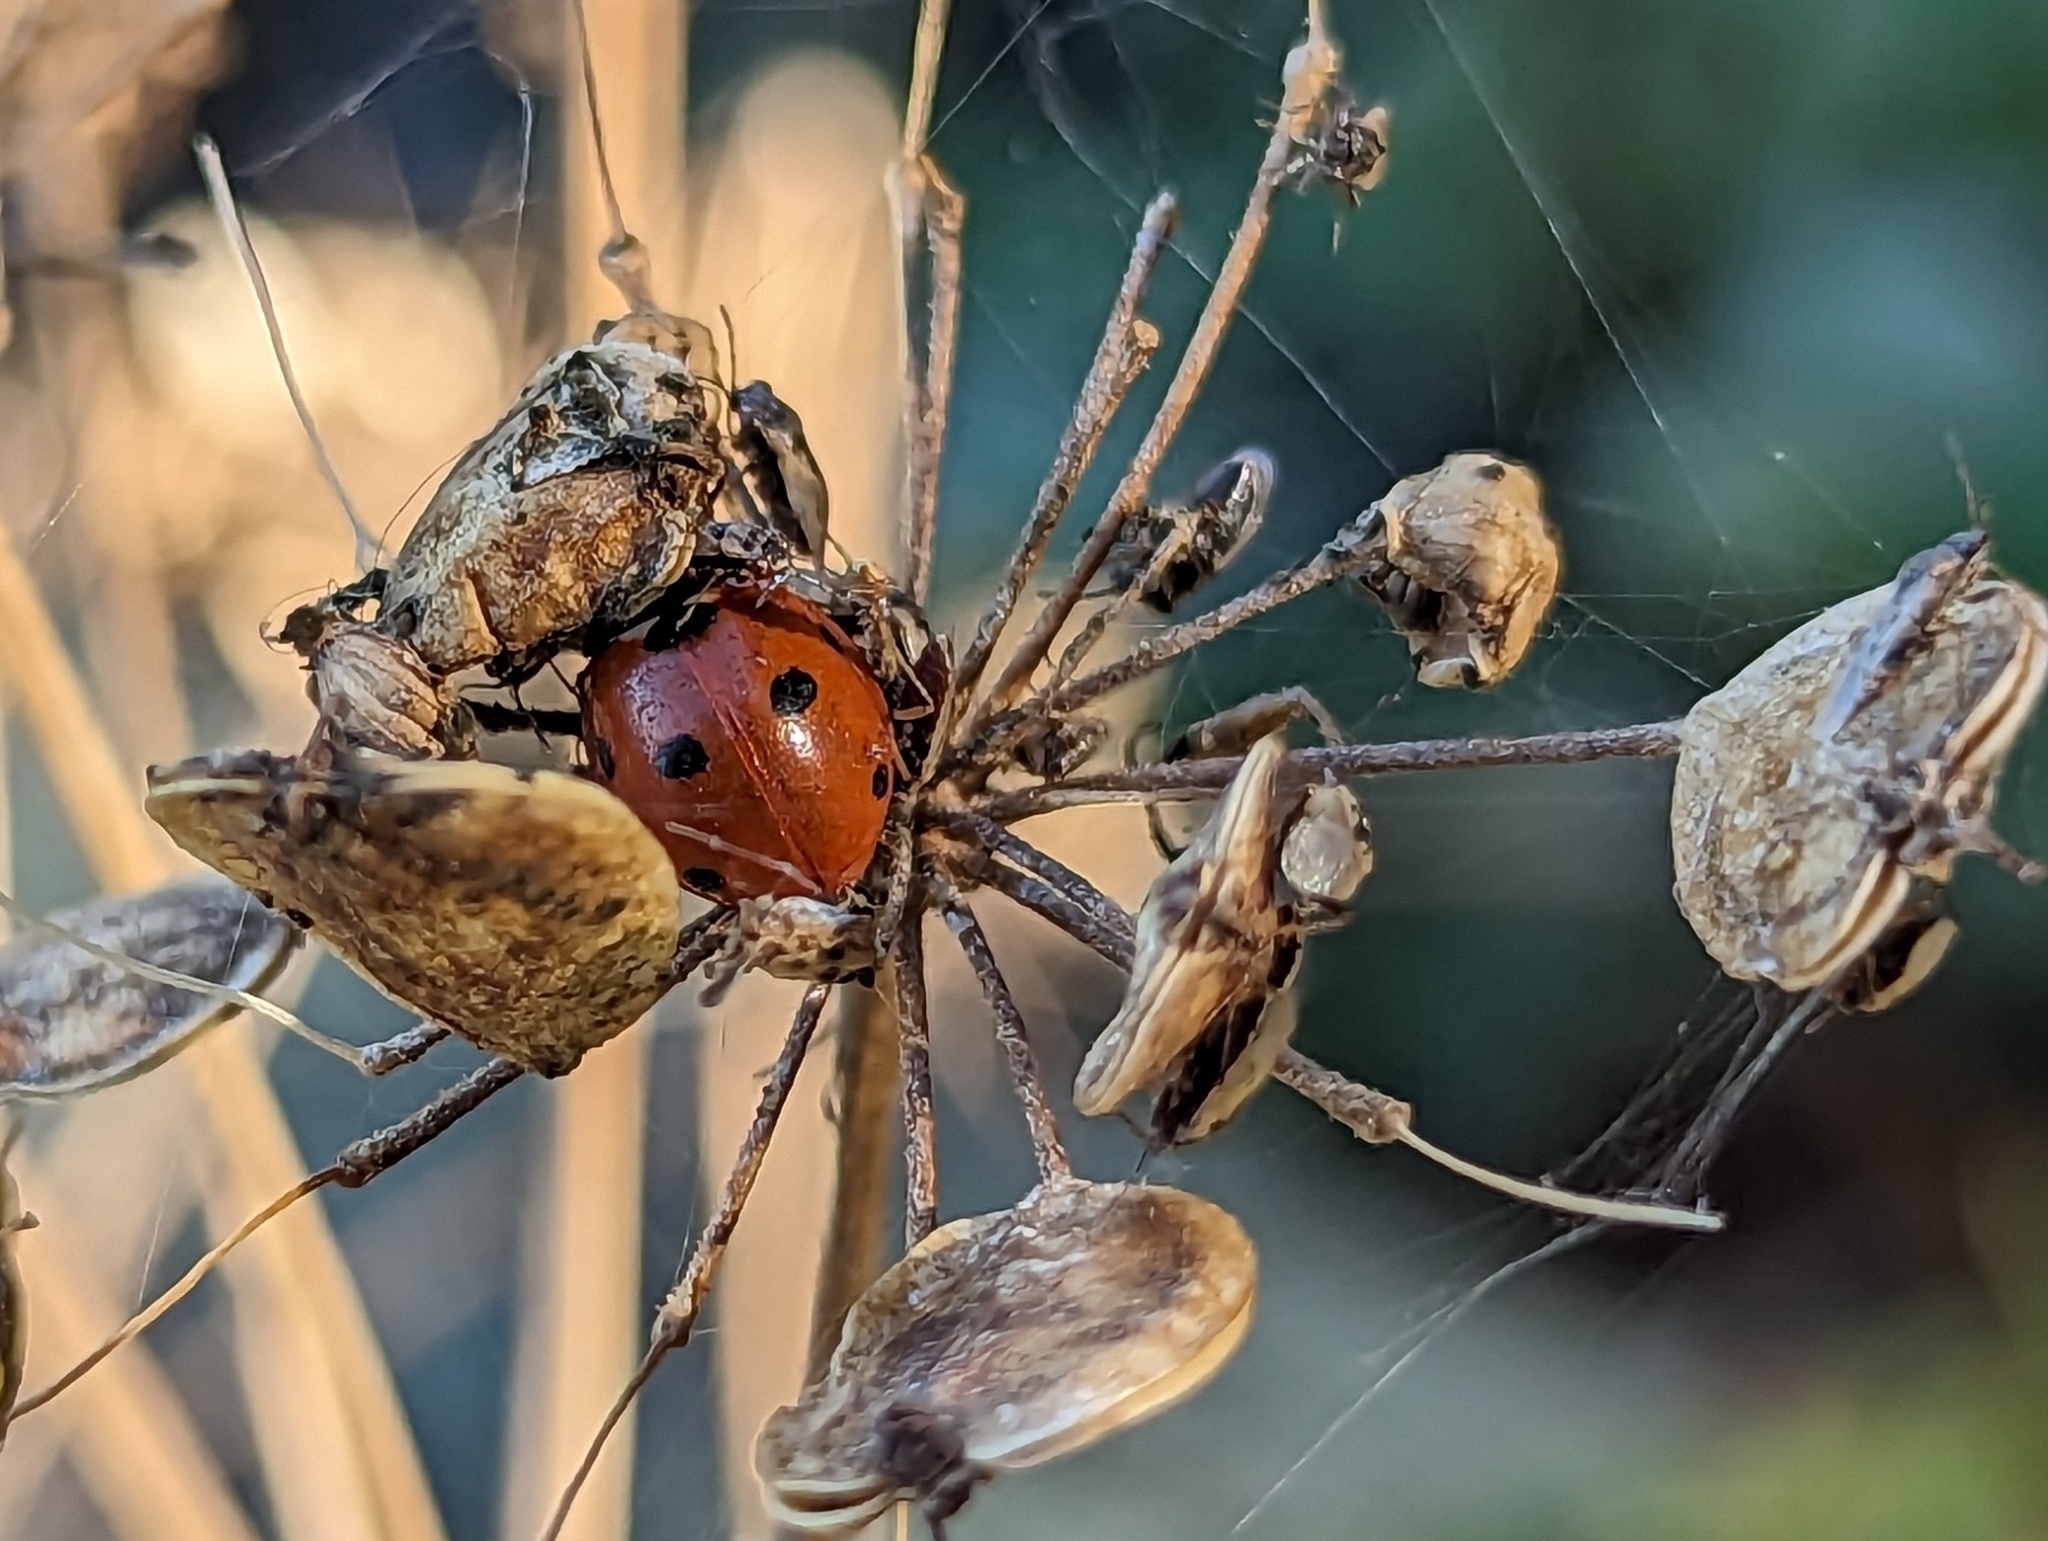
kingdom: Animalia
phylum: Arthropoda
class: Insecta
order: Coleoptera
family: Coccinellidae
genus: Coccinella
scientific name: Coccinella septempunctata
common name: Sevenspotted lady beetle
